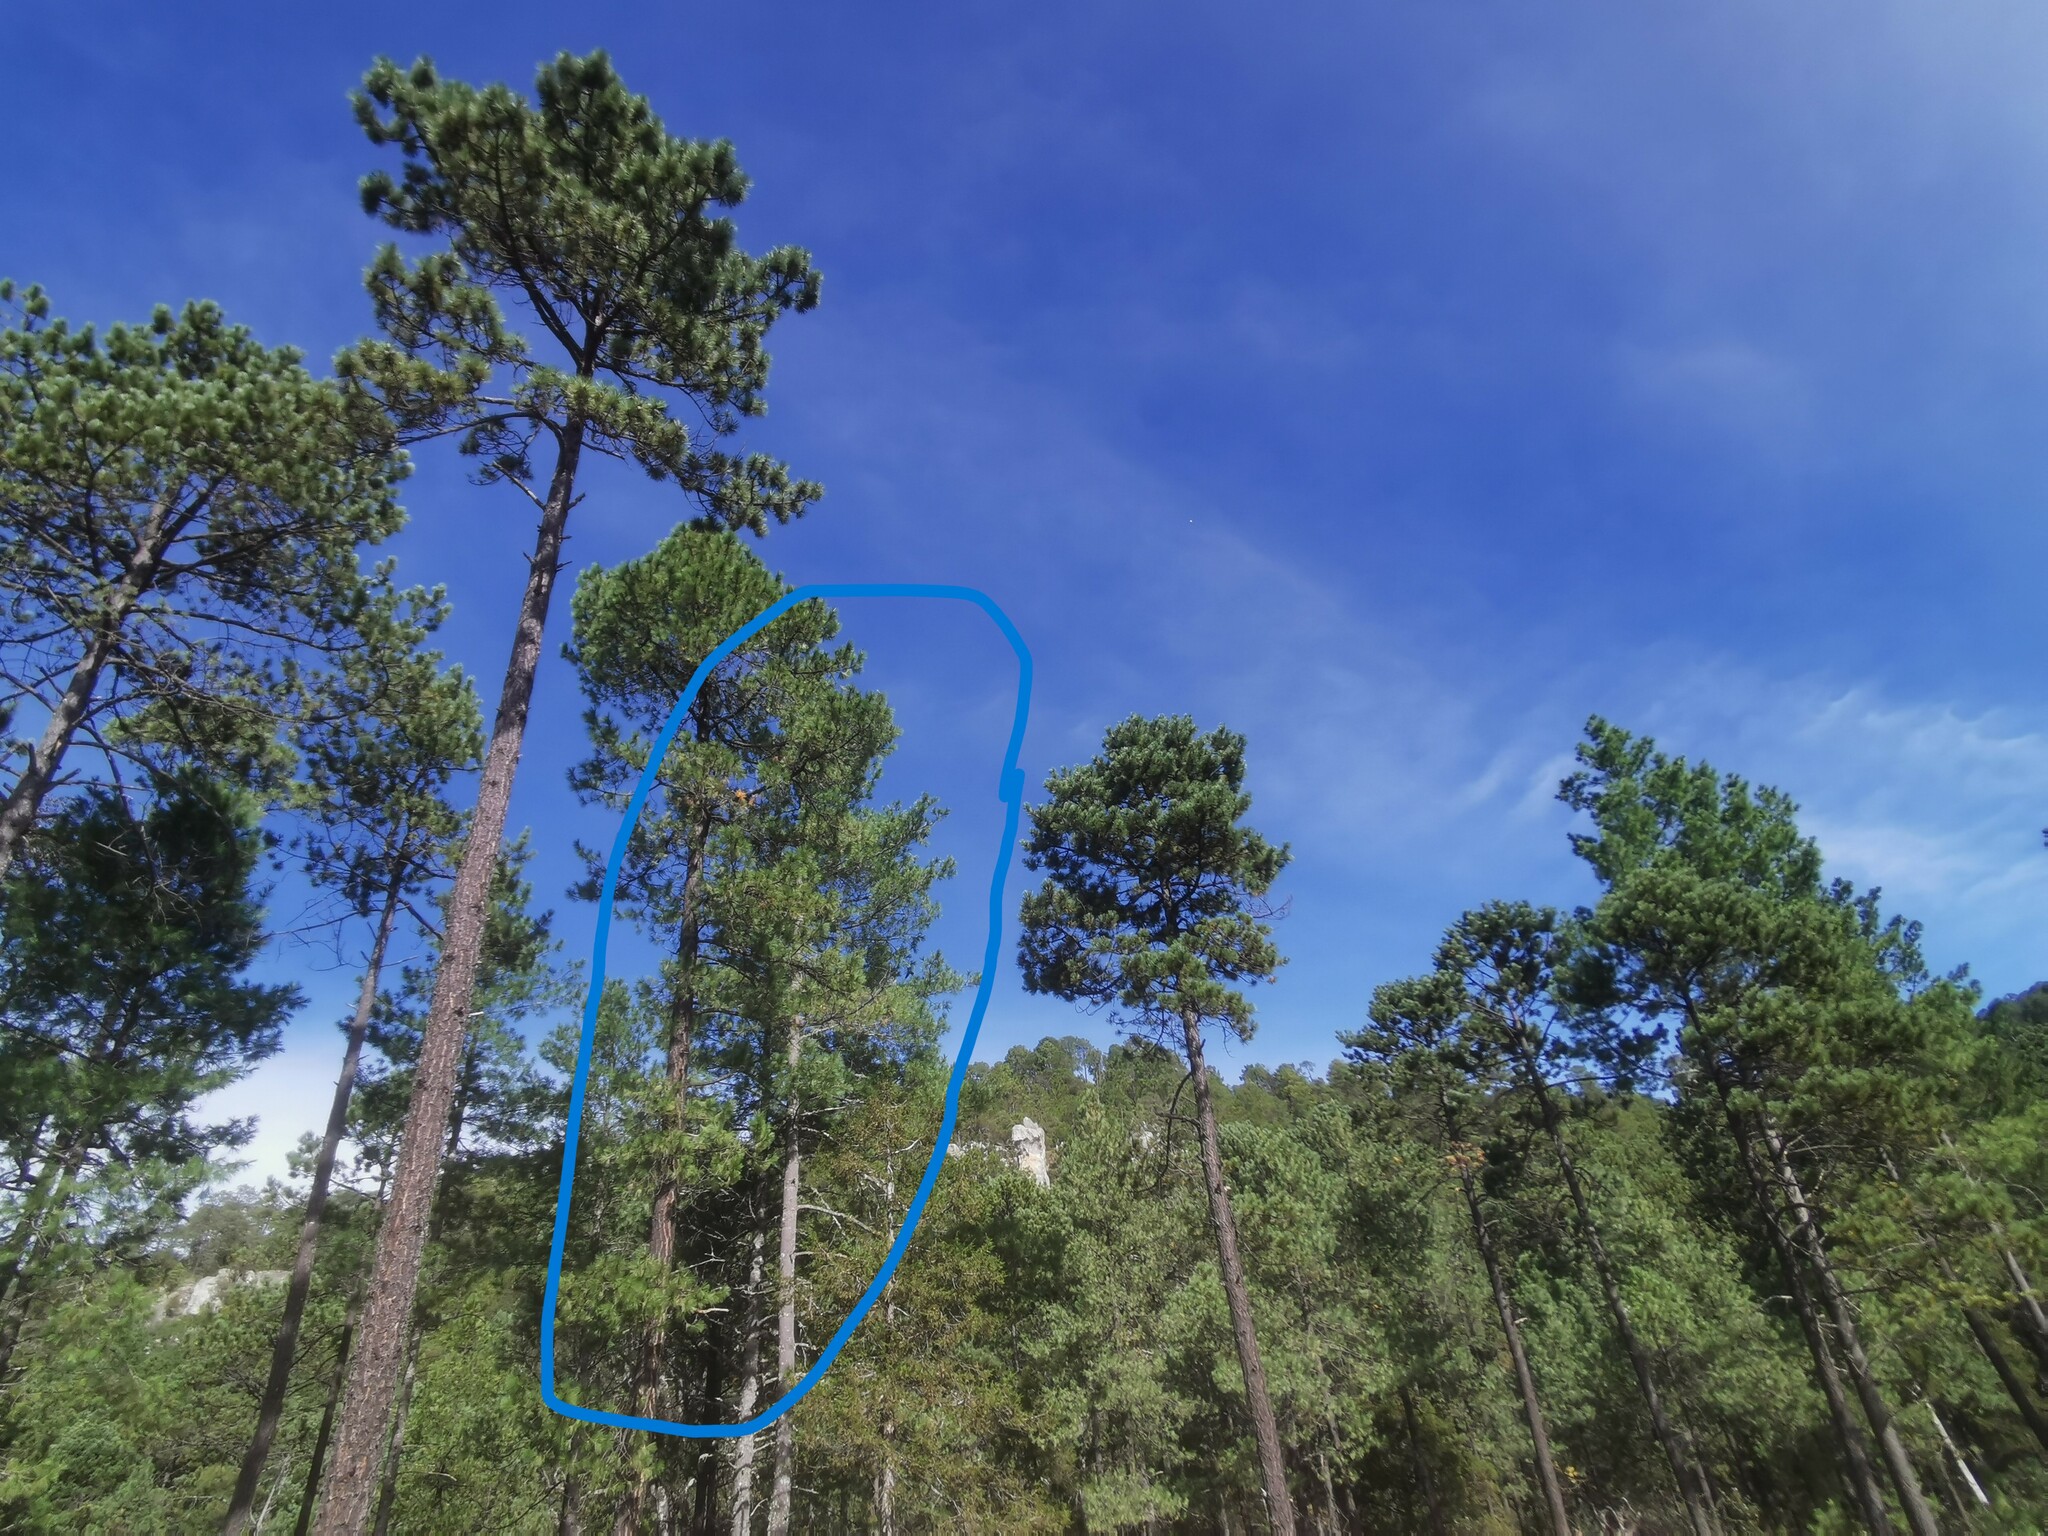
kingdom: Plantae
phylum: Tracheophyta
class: Pinopsida
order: Pinales
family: Pinaceae
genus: Pinus
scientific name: Pinus strobiformis
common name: Southwestern white pine
